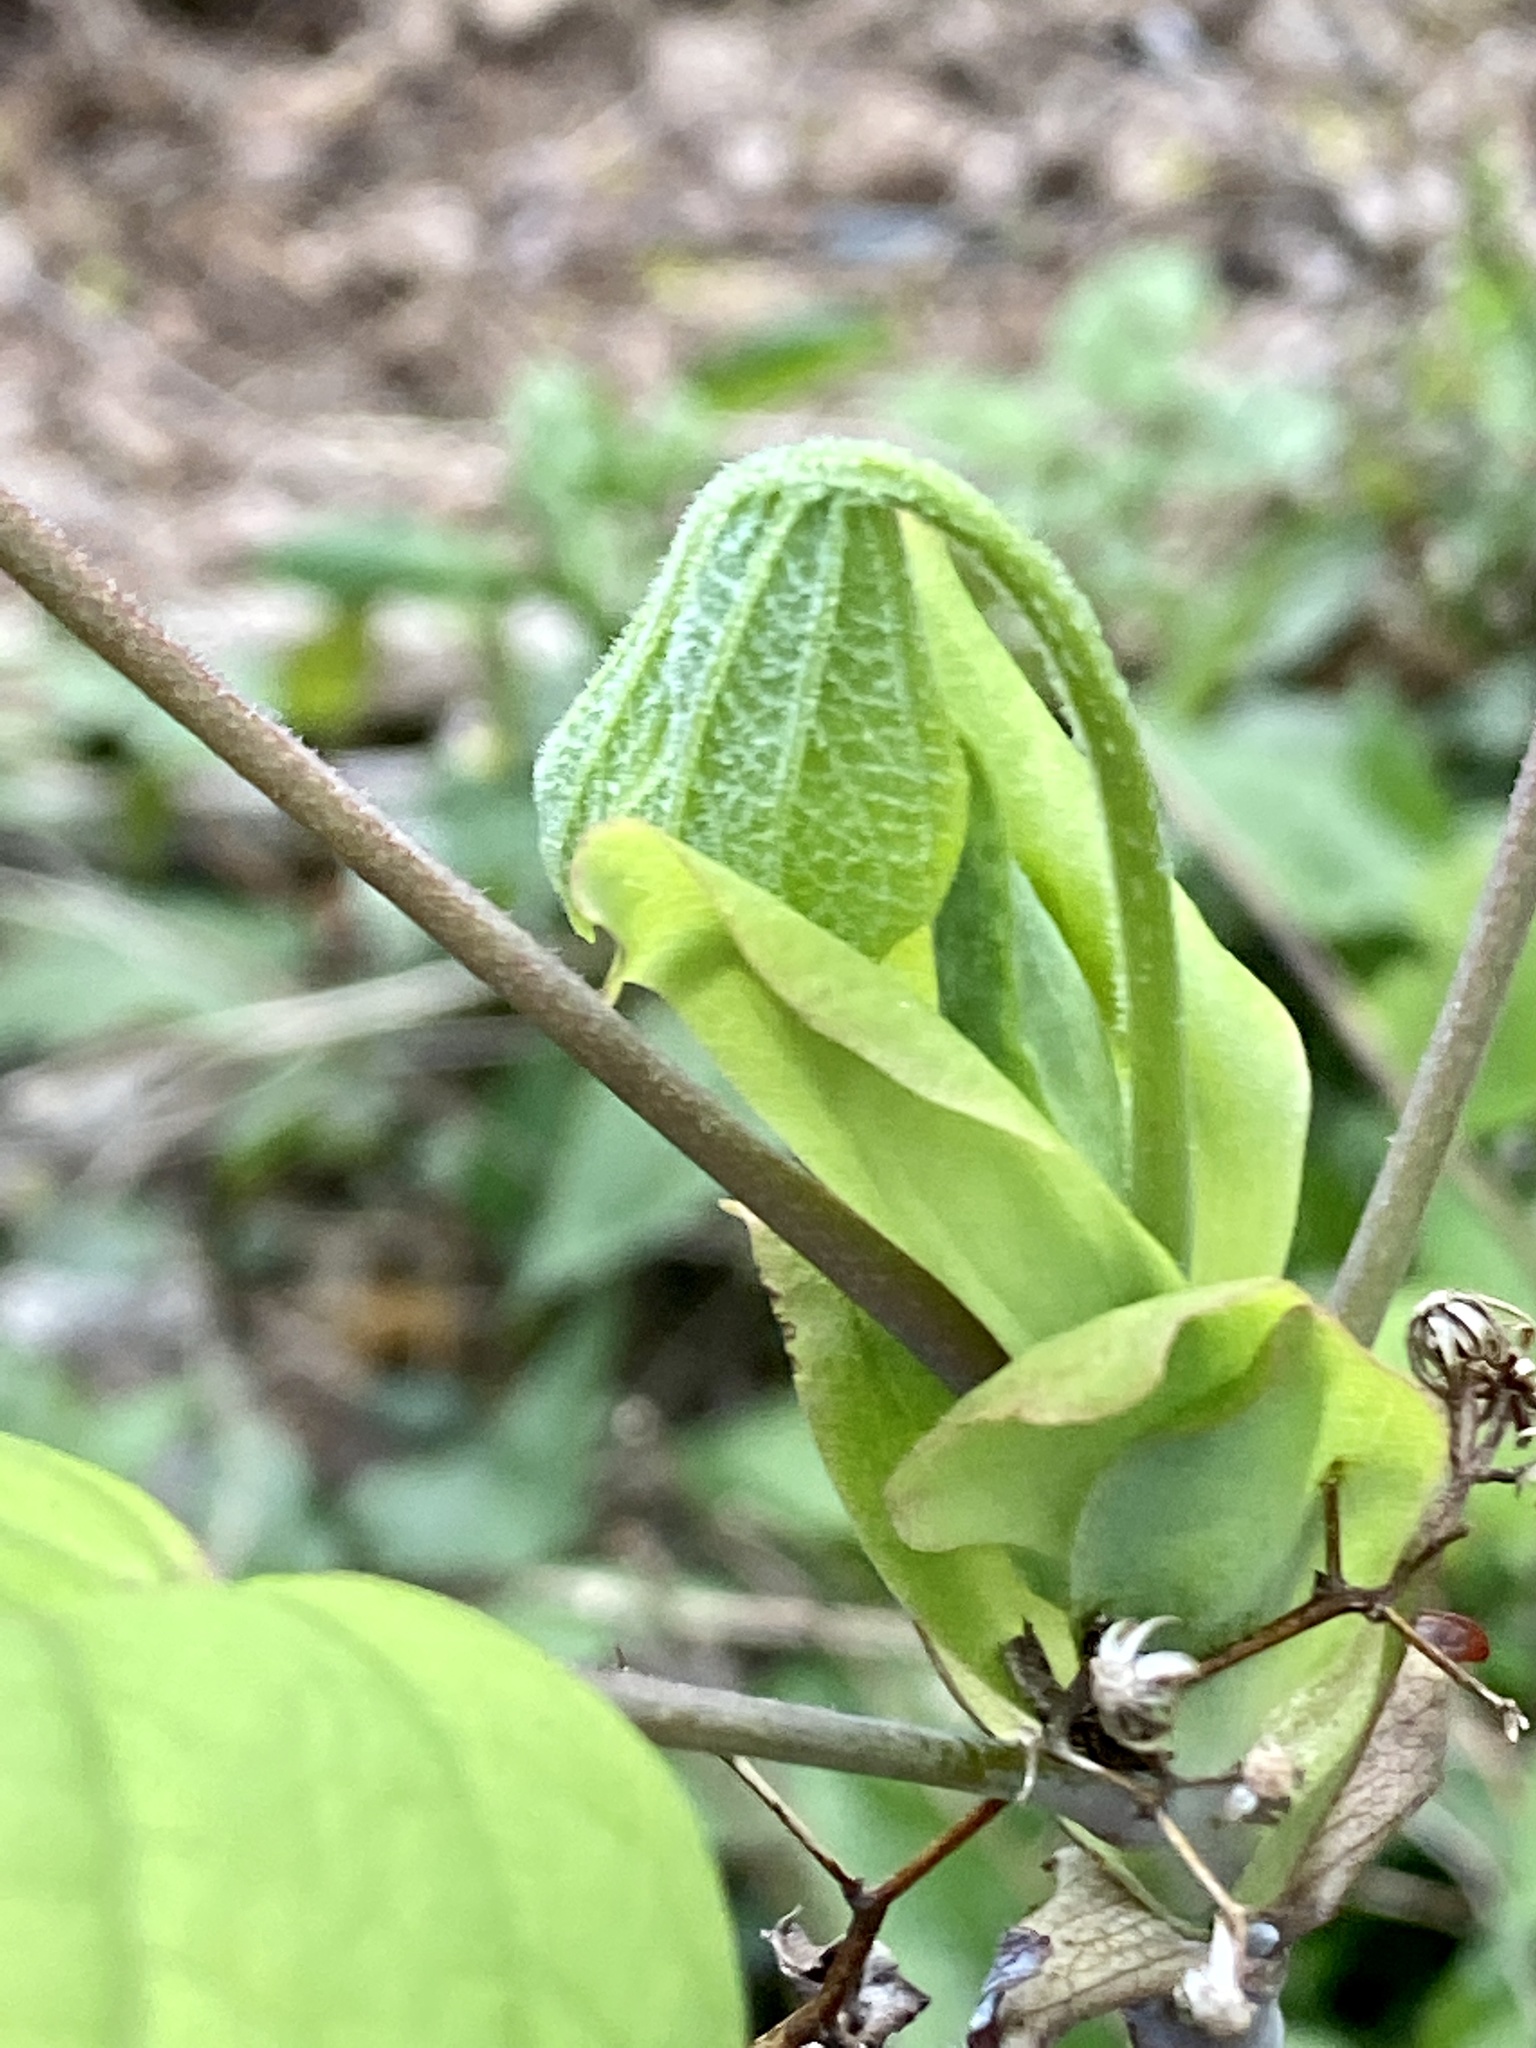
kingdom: Plantae
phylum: Tracheophyta
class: Magnoliopsida
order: Magnoliales
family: Magnoliaceae
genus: Liriodendron
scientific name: Liriodendron tulipifera
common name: Tulip tree
